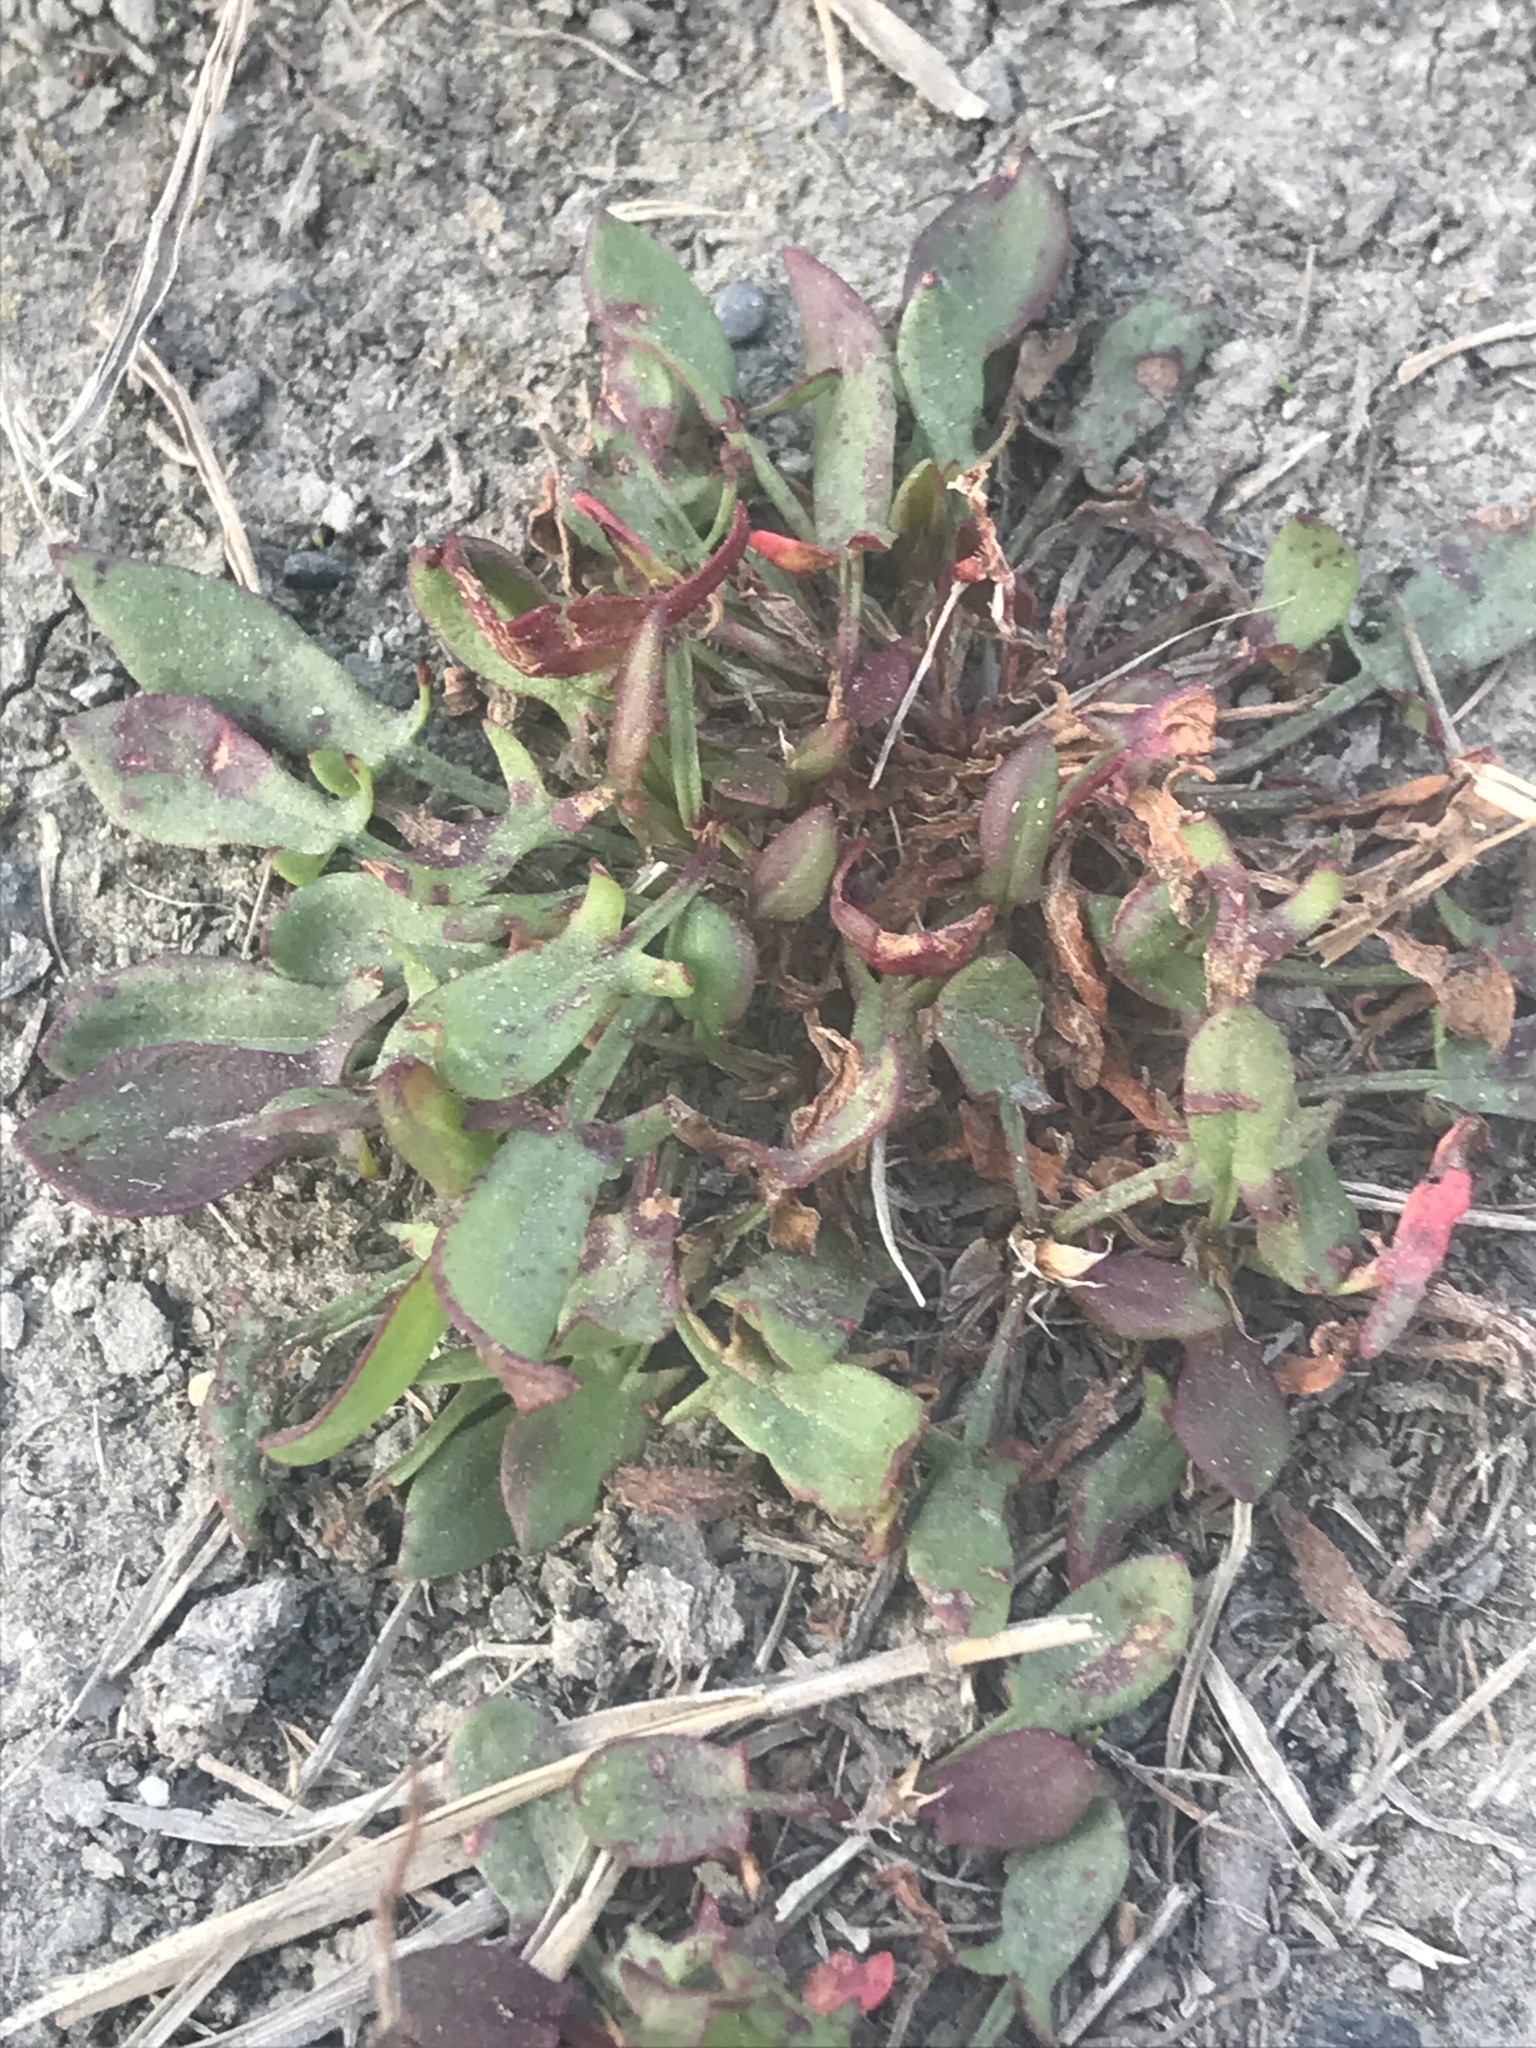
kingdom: Plantae
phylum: Tracheophyta
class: Magnoliopsida
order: Caryophyllales
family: Polygonaceae
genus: Rumex
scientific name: Rumex acetosella
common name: Common sheep sorrel
